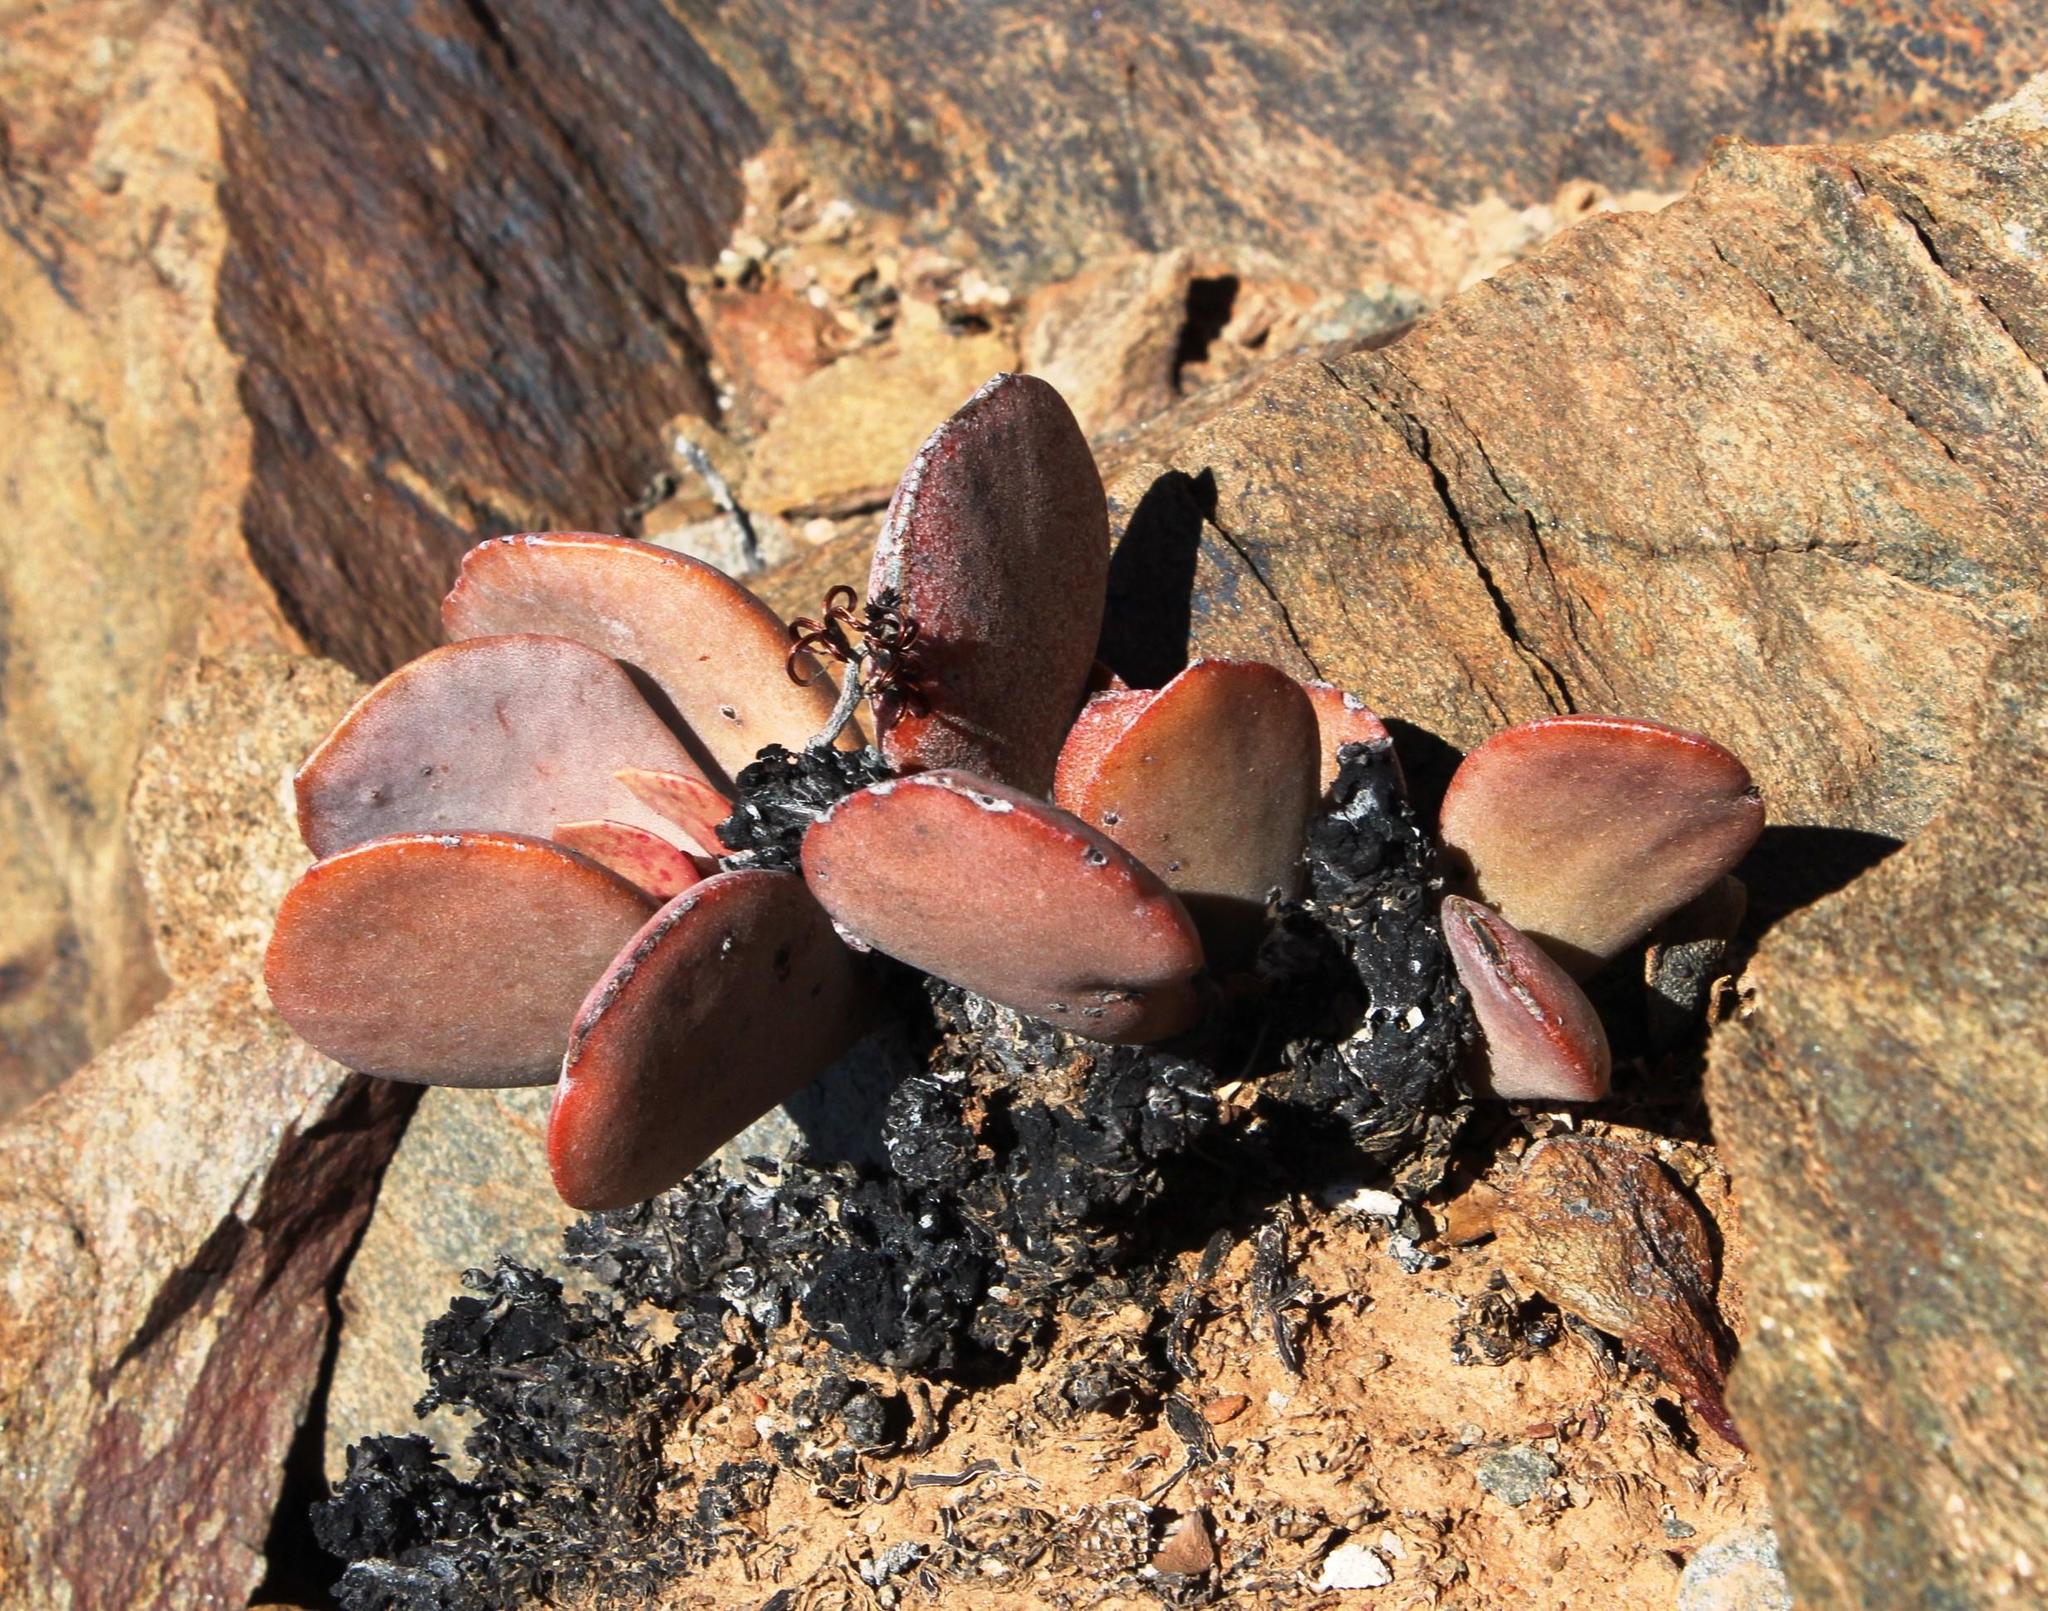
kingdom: Plantae
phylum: Tracheophyta
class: Magnoliopsida
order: Saxifragales
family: Crassulaceae
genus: Adromischus
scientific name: Adromischus alstonii
